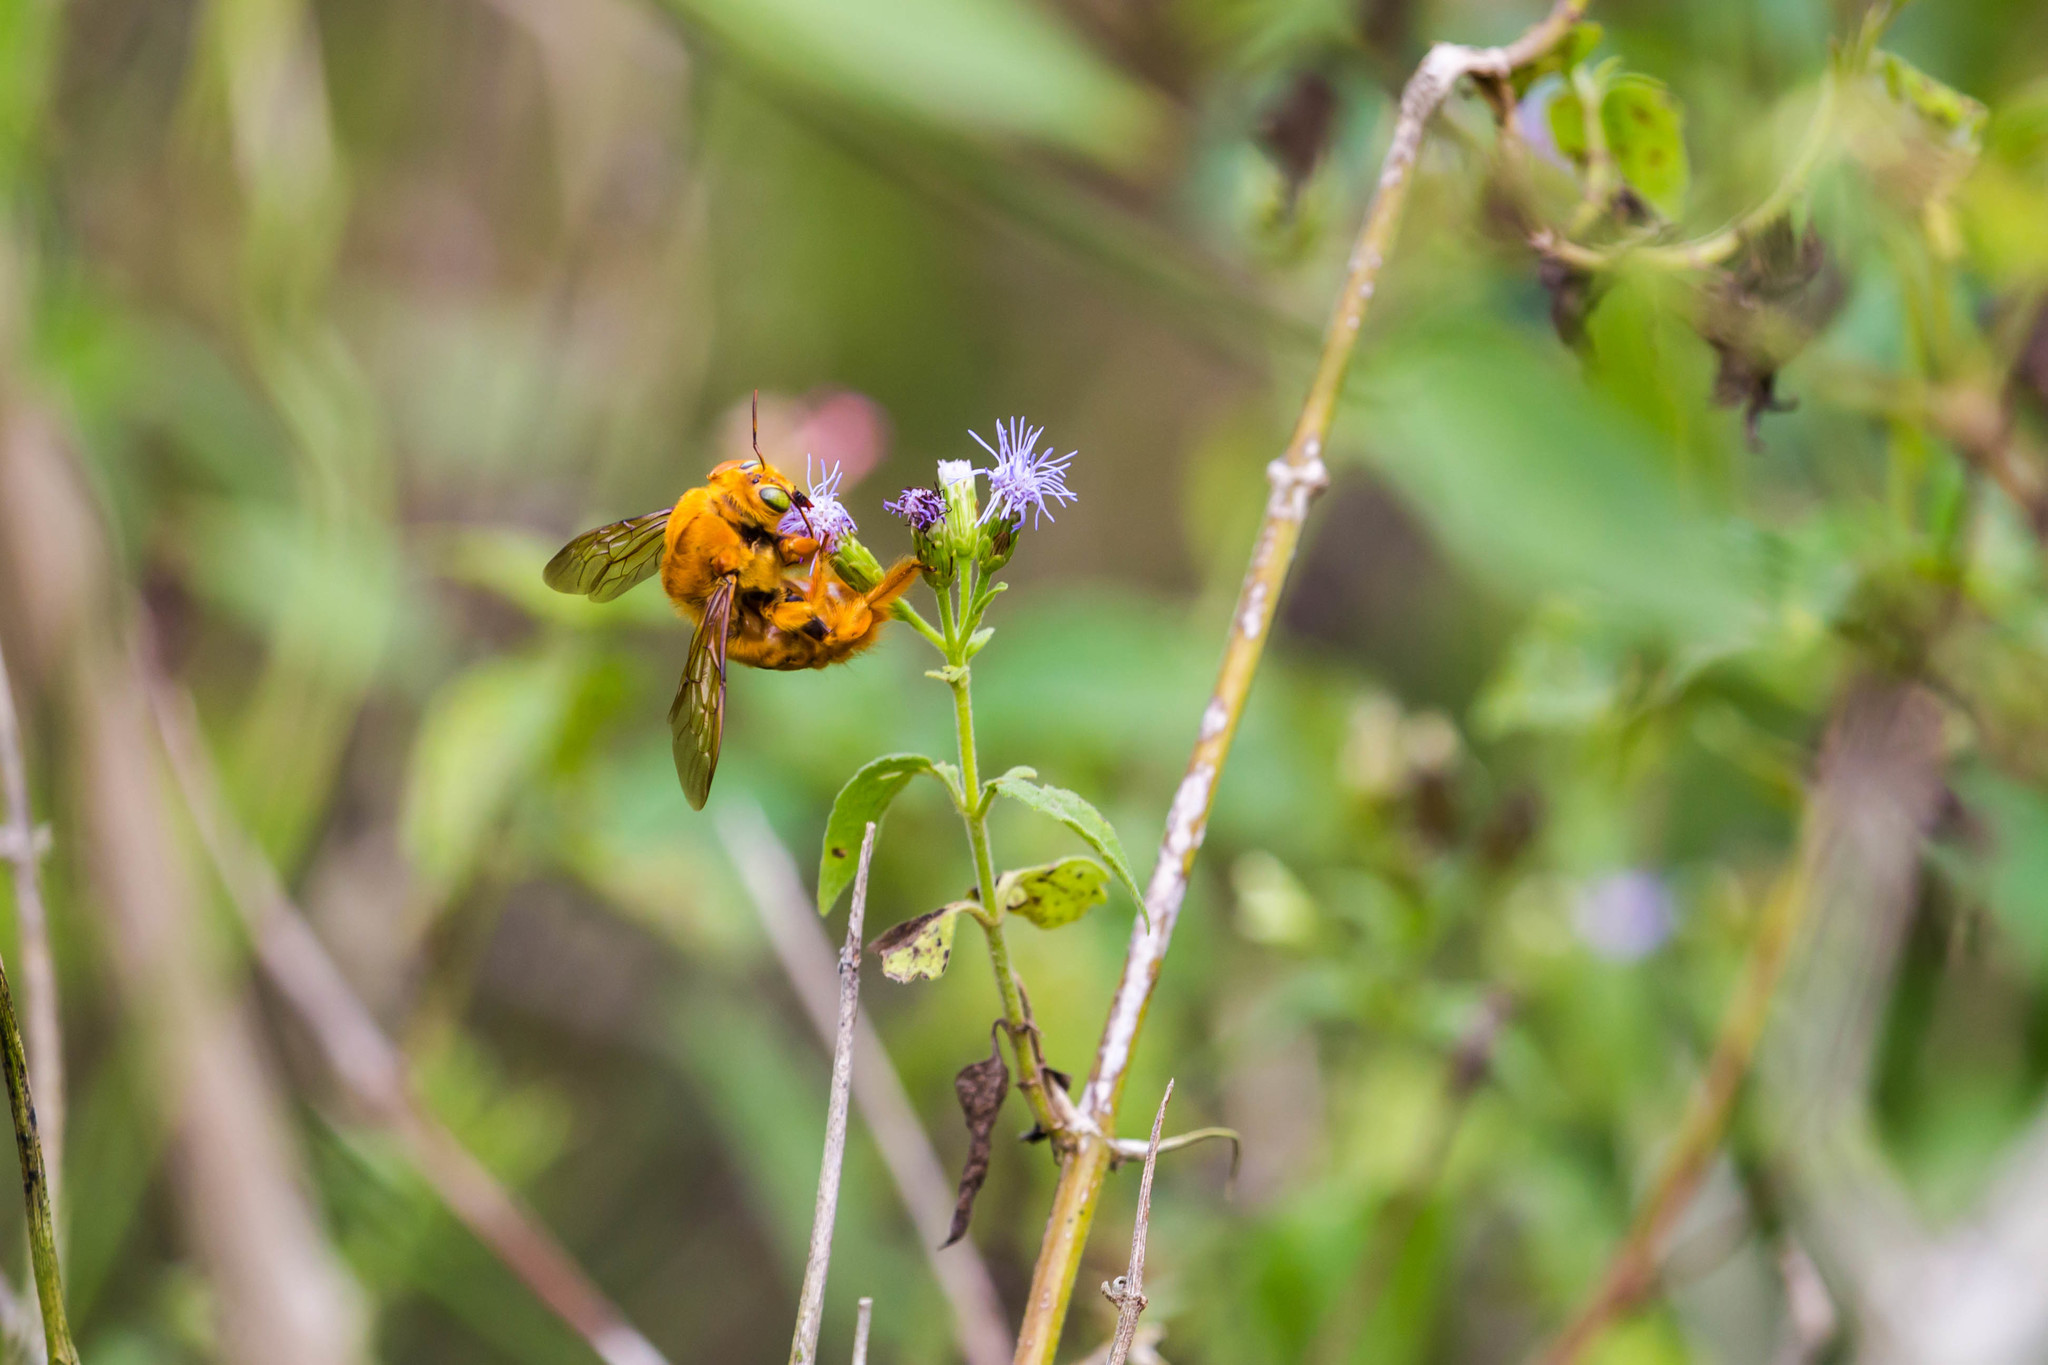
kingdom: Animalia
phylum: Arthropoda
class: Insecta
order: Hymenoptera
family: Apidae
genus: Xylocopa
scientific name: Xylocopa griswoldi
